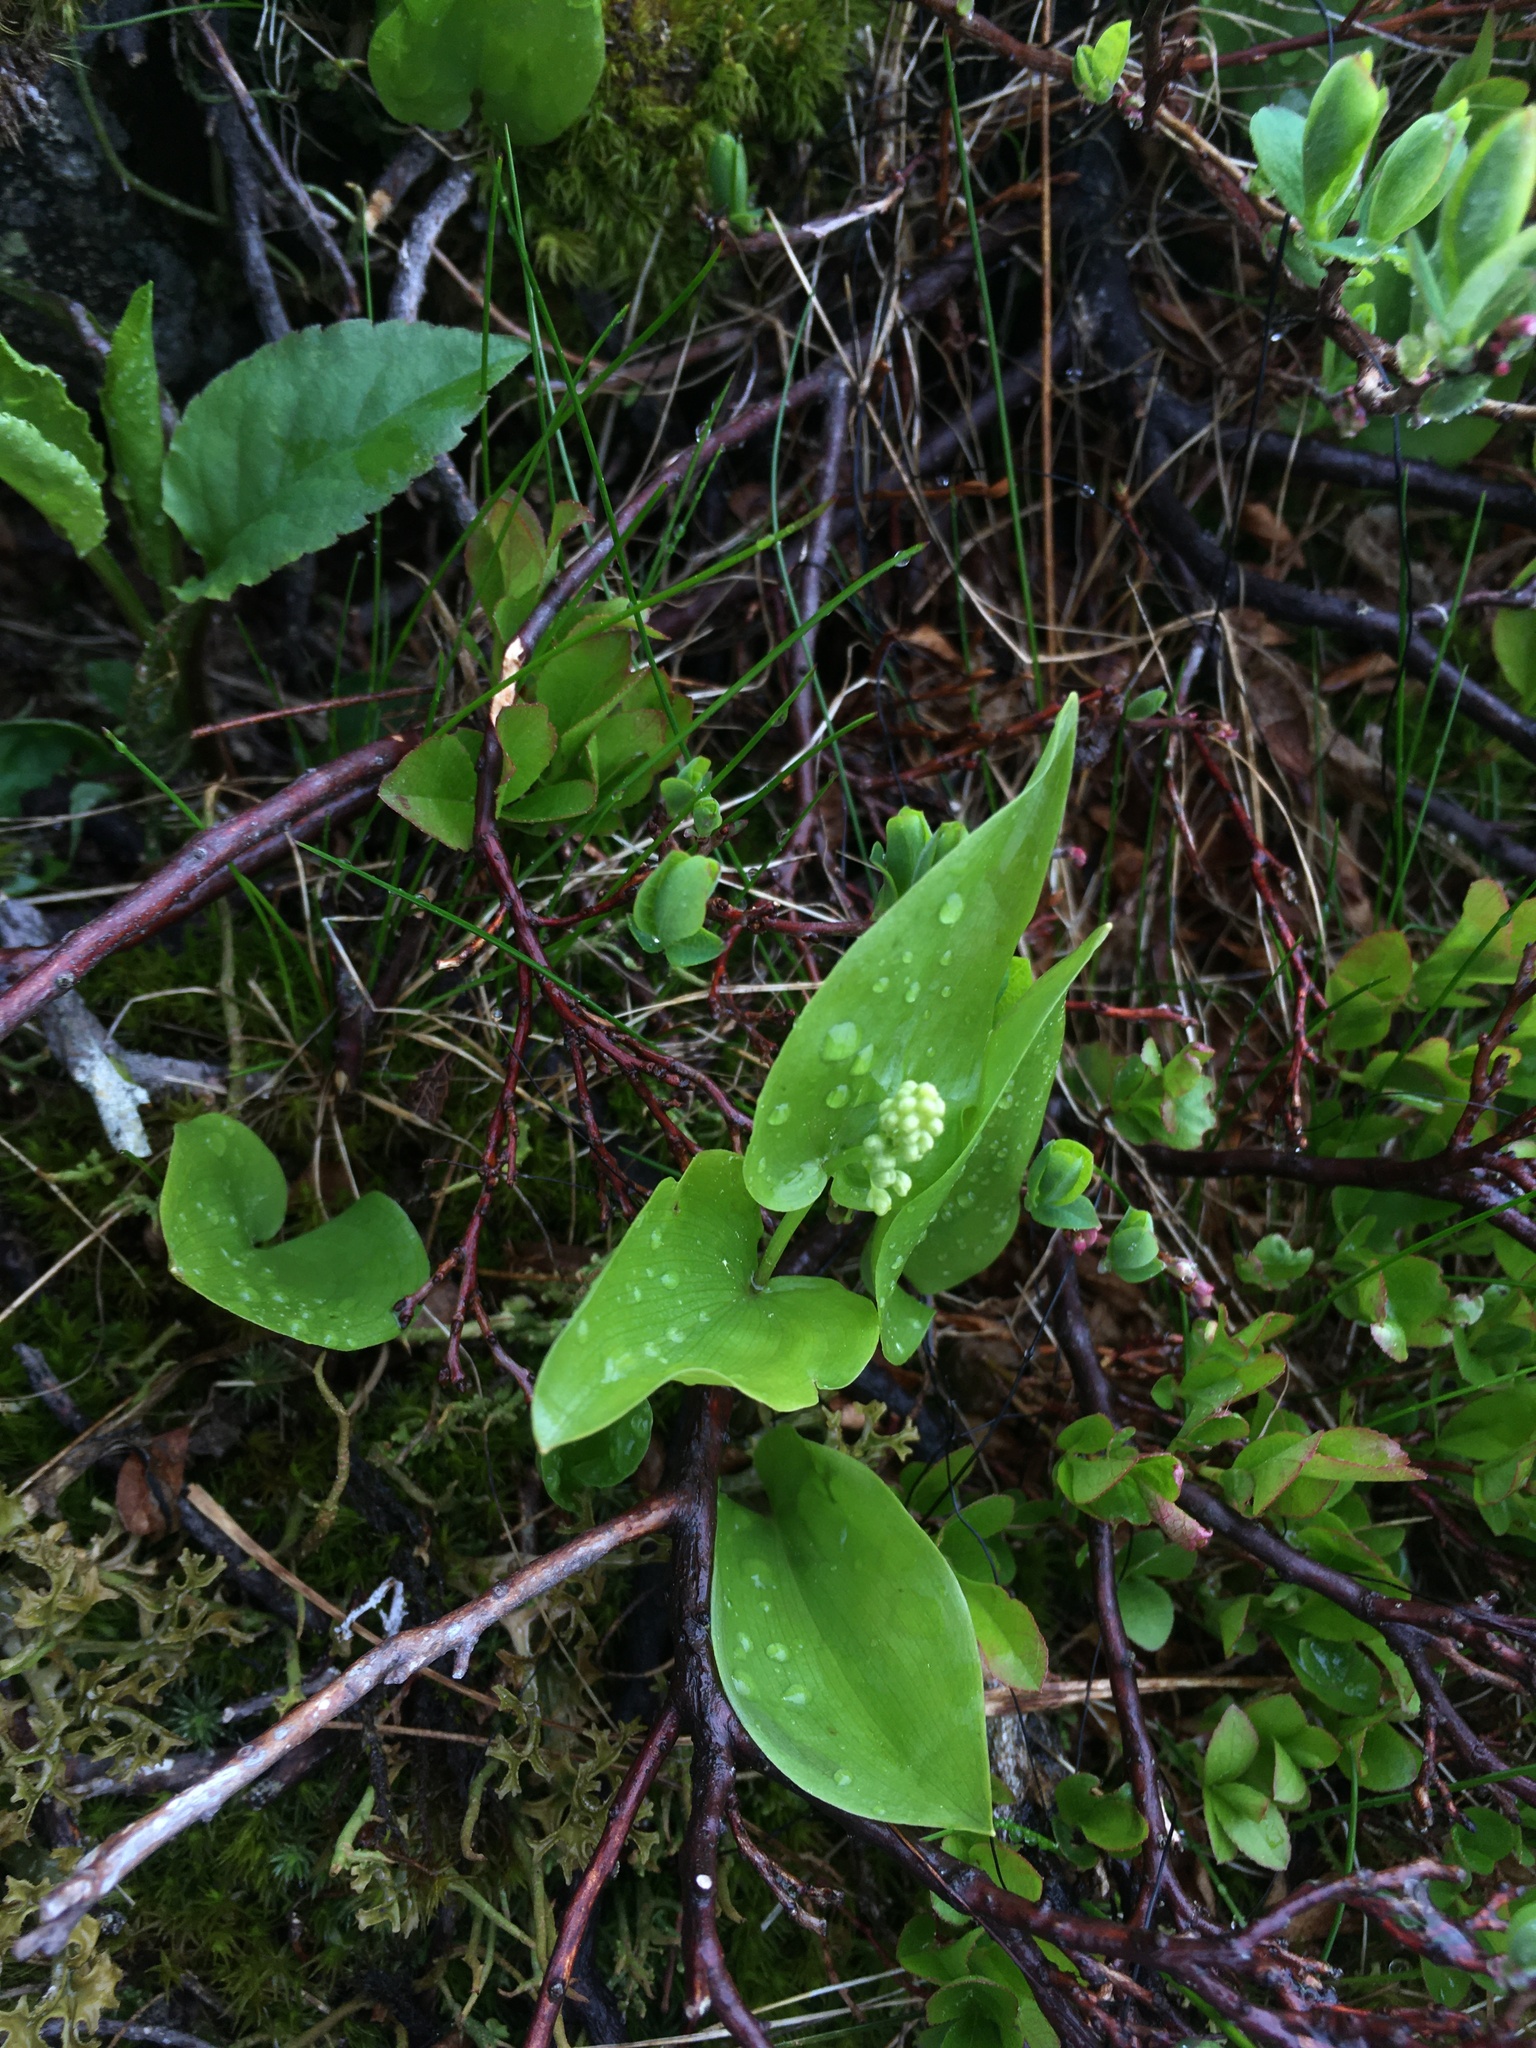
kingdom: Plantae
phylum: Tracheophyta
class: Liliopsida
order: Asparagales
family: Asparagaceae
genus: Maianthemum
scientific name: Maianthemum canadense
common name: False lily-of-the-valley
